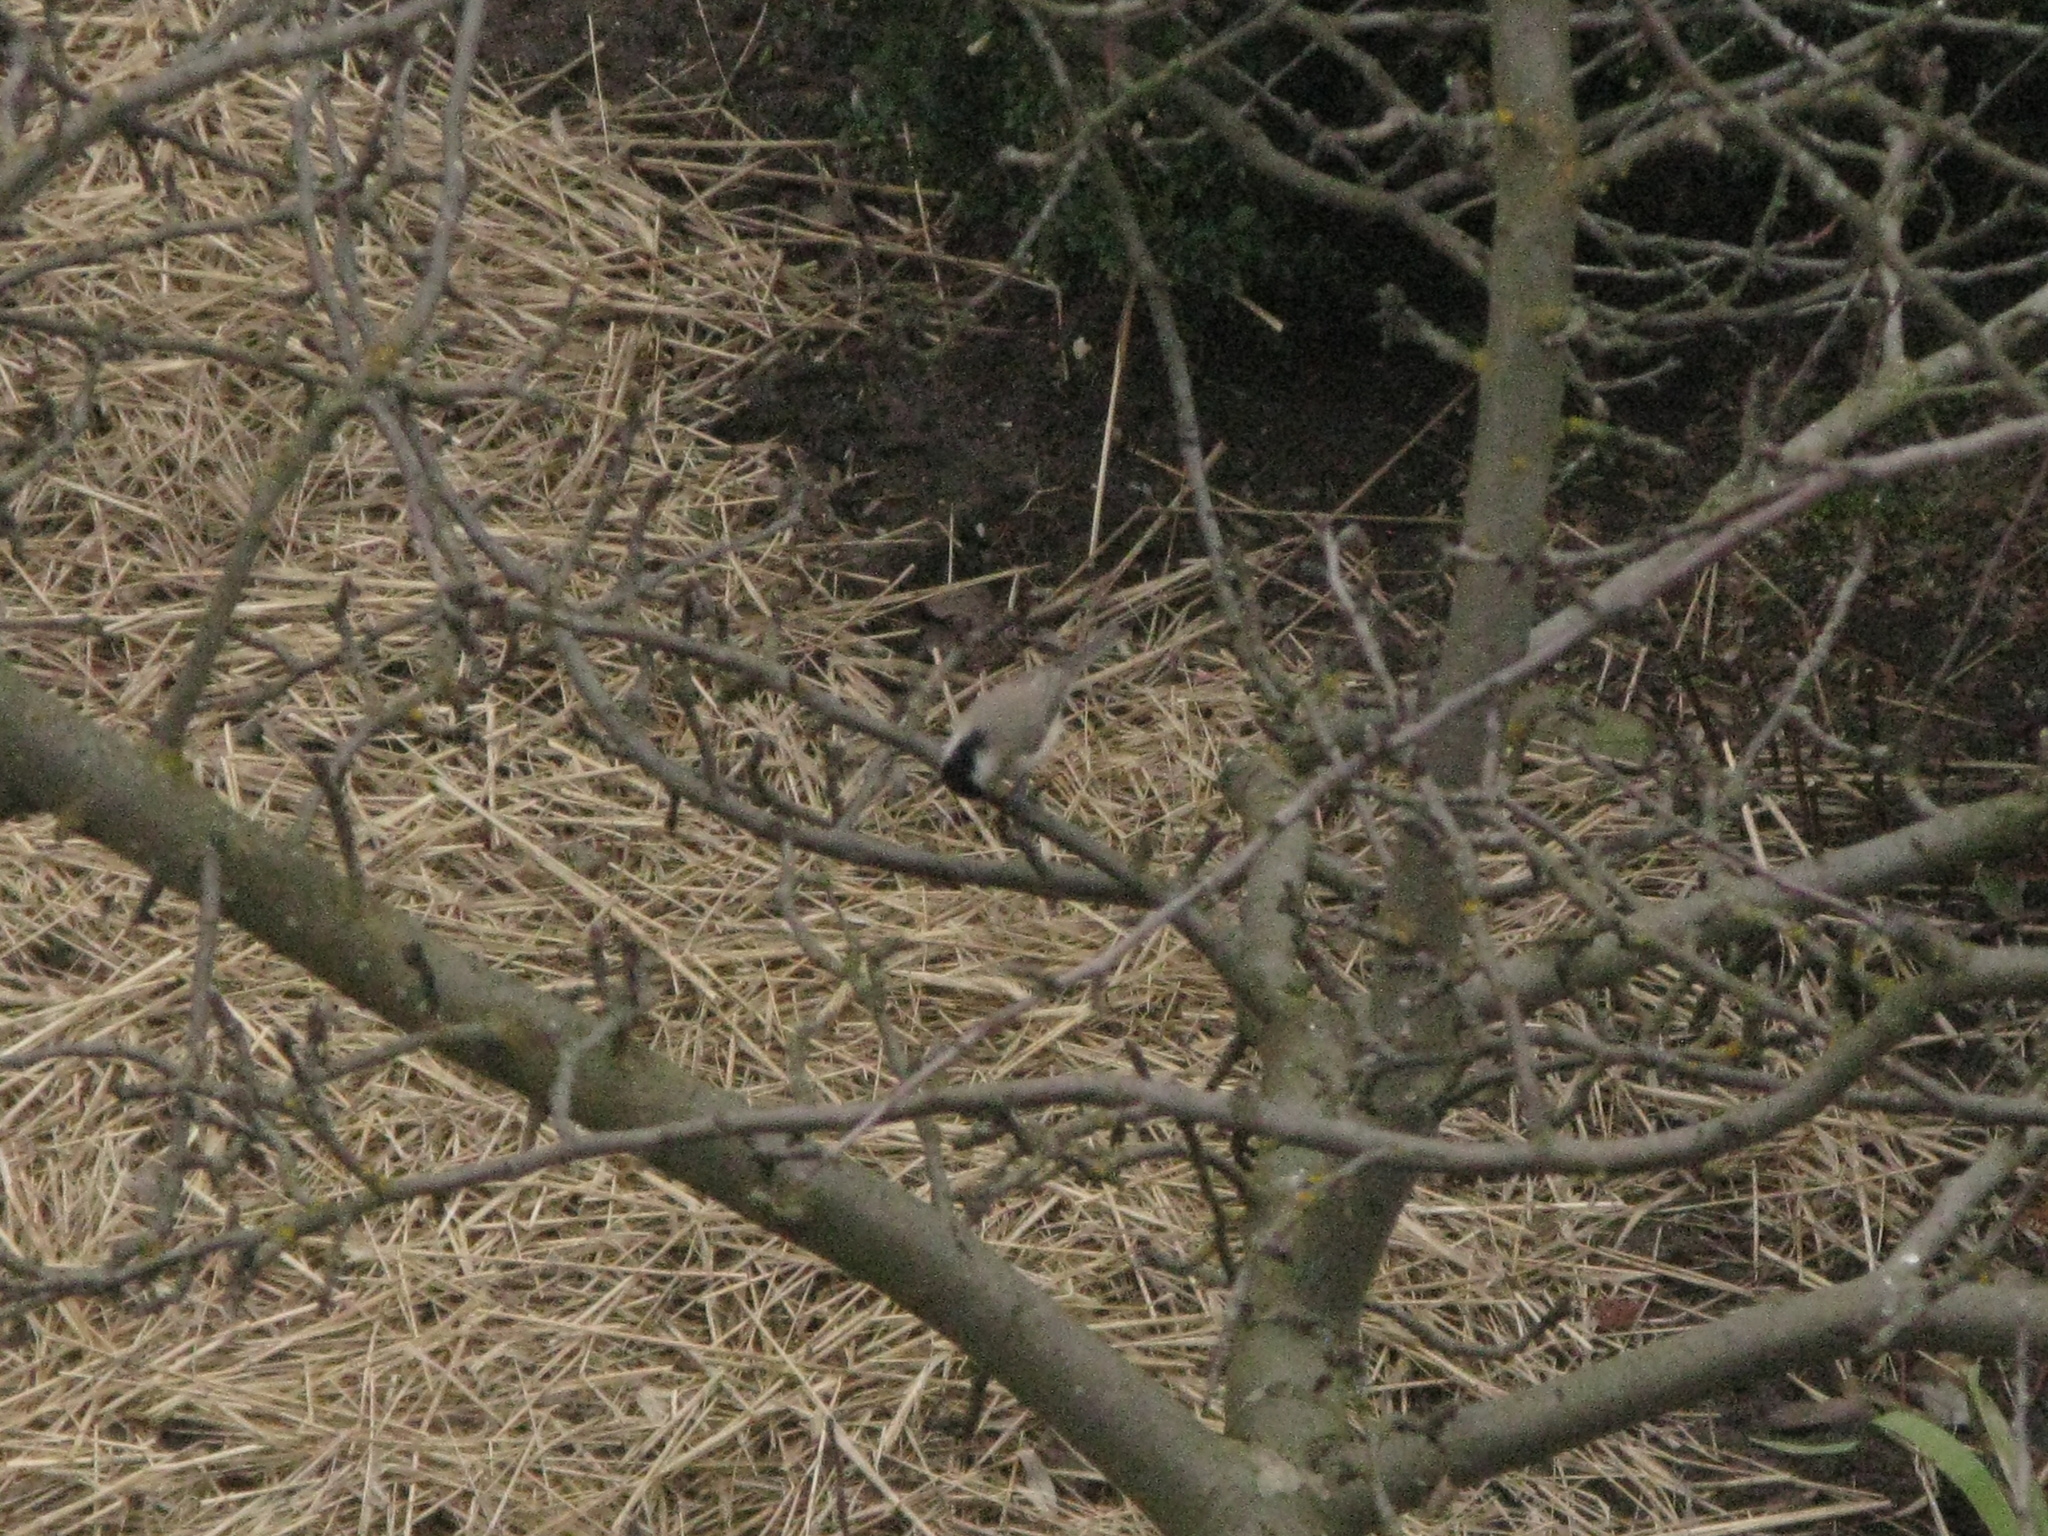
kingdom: Animalia
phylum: Chordata
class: Aves
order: Passeriformes
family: Paridae
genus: Poecile
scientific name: Poecile palustris
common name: Marsh tit
